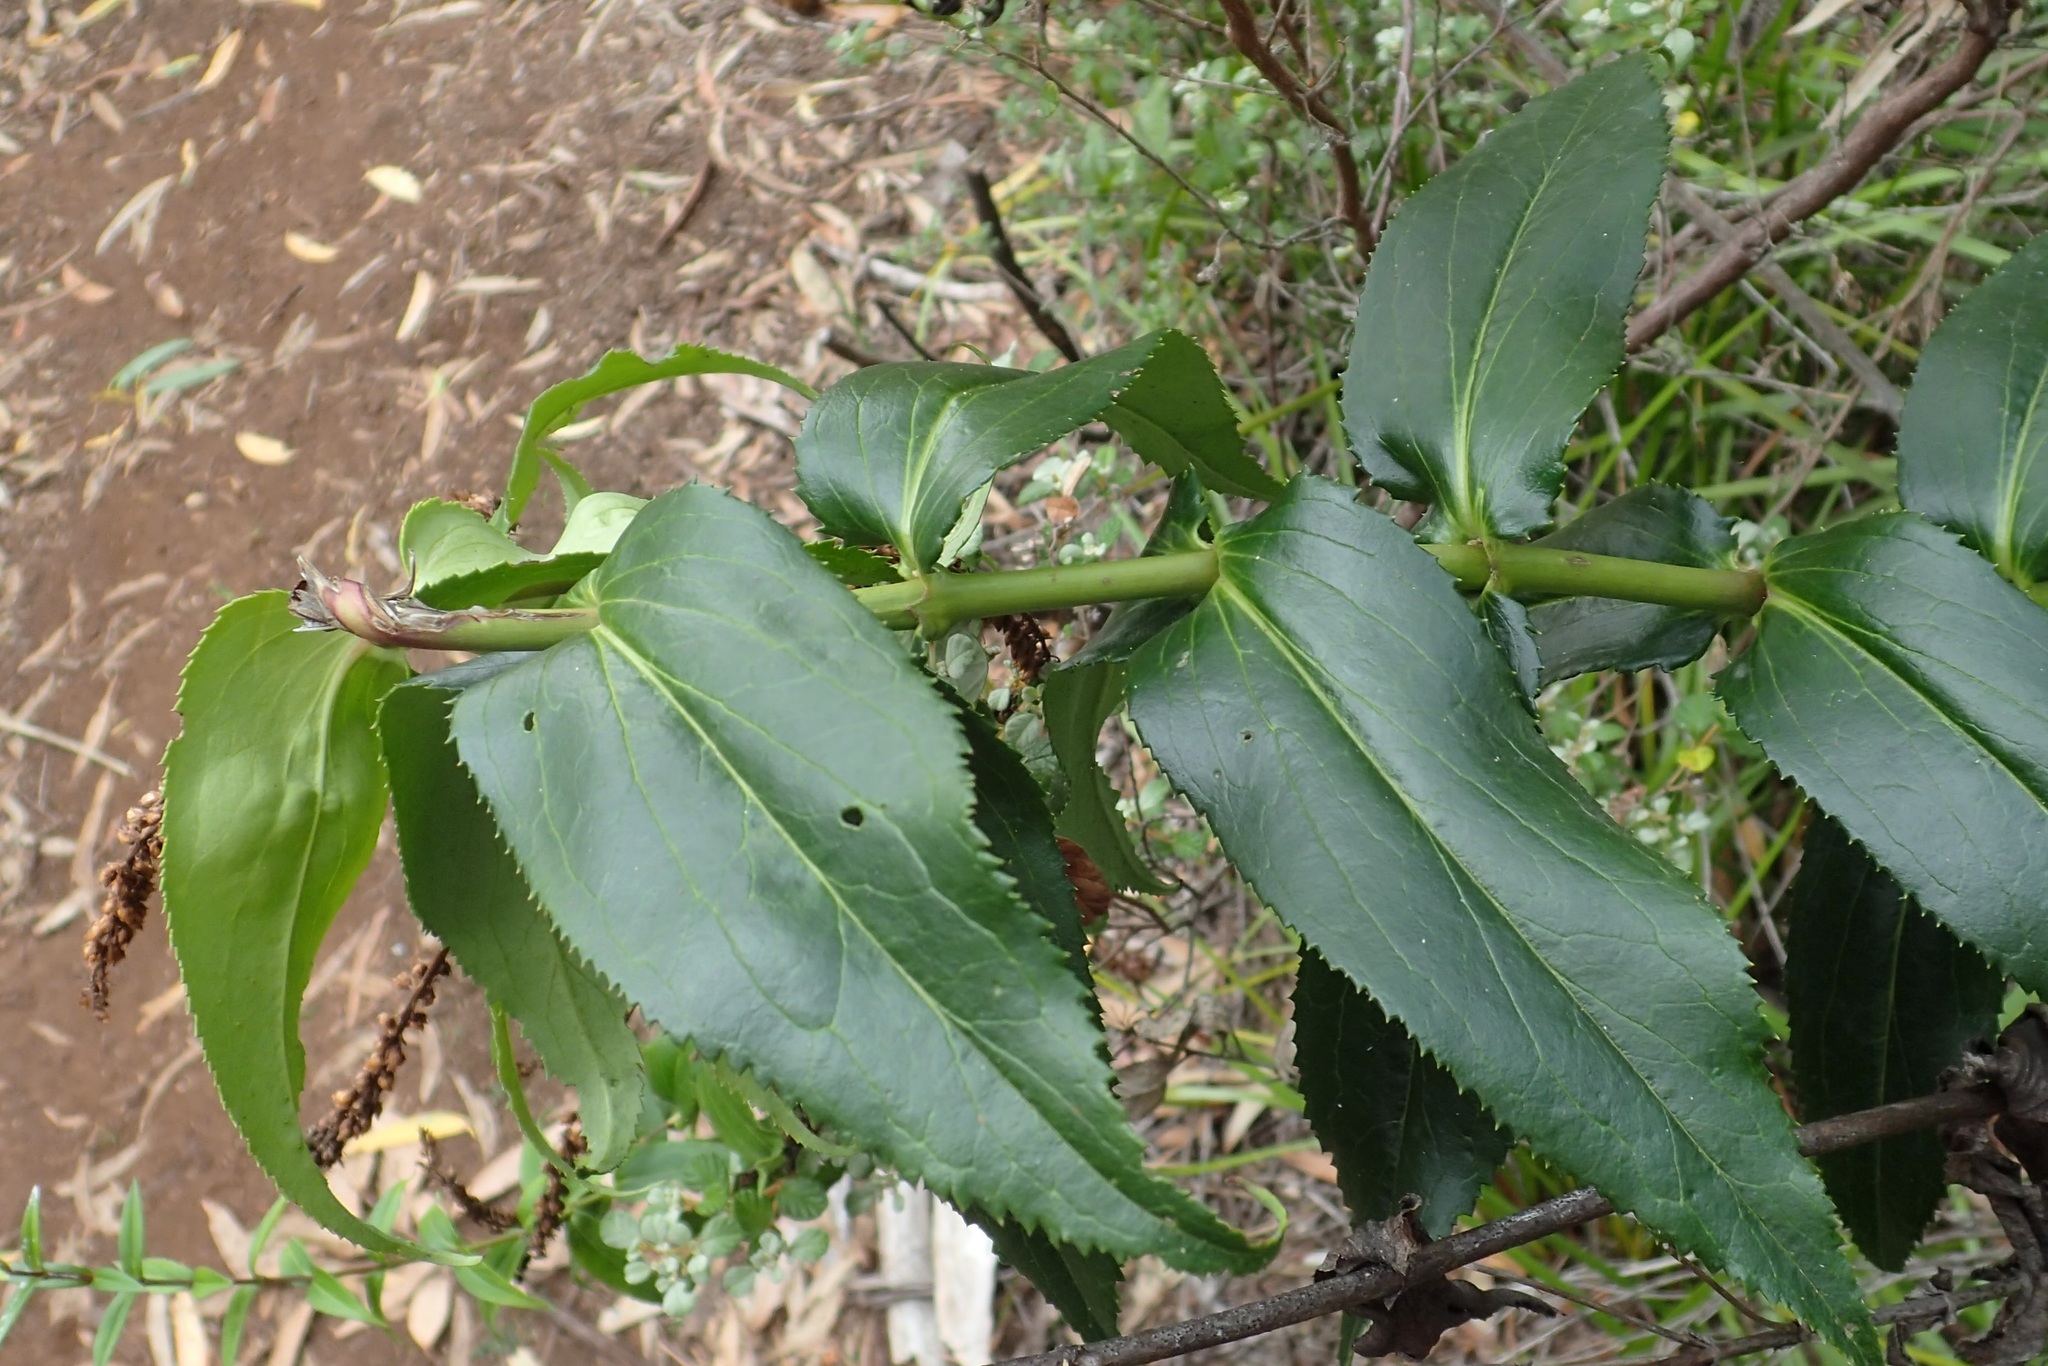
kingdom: Plantae
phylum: Tracheophyta
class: Magnoliopsida
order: Lamiales
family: Plantaginaceae
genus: Veronica
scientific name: Veronica derwentiana
